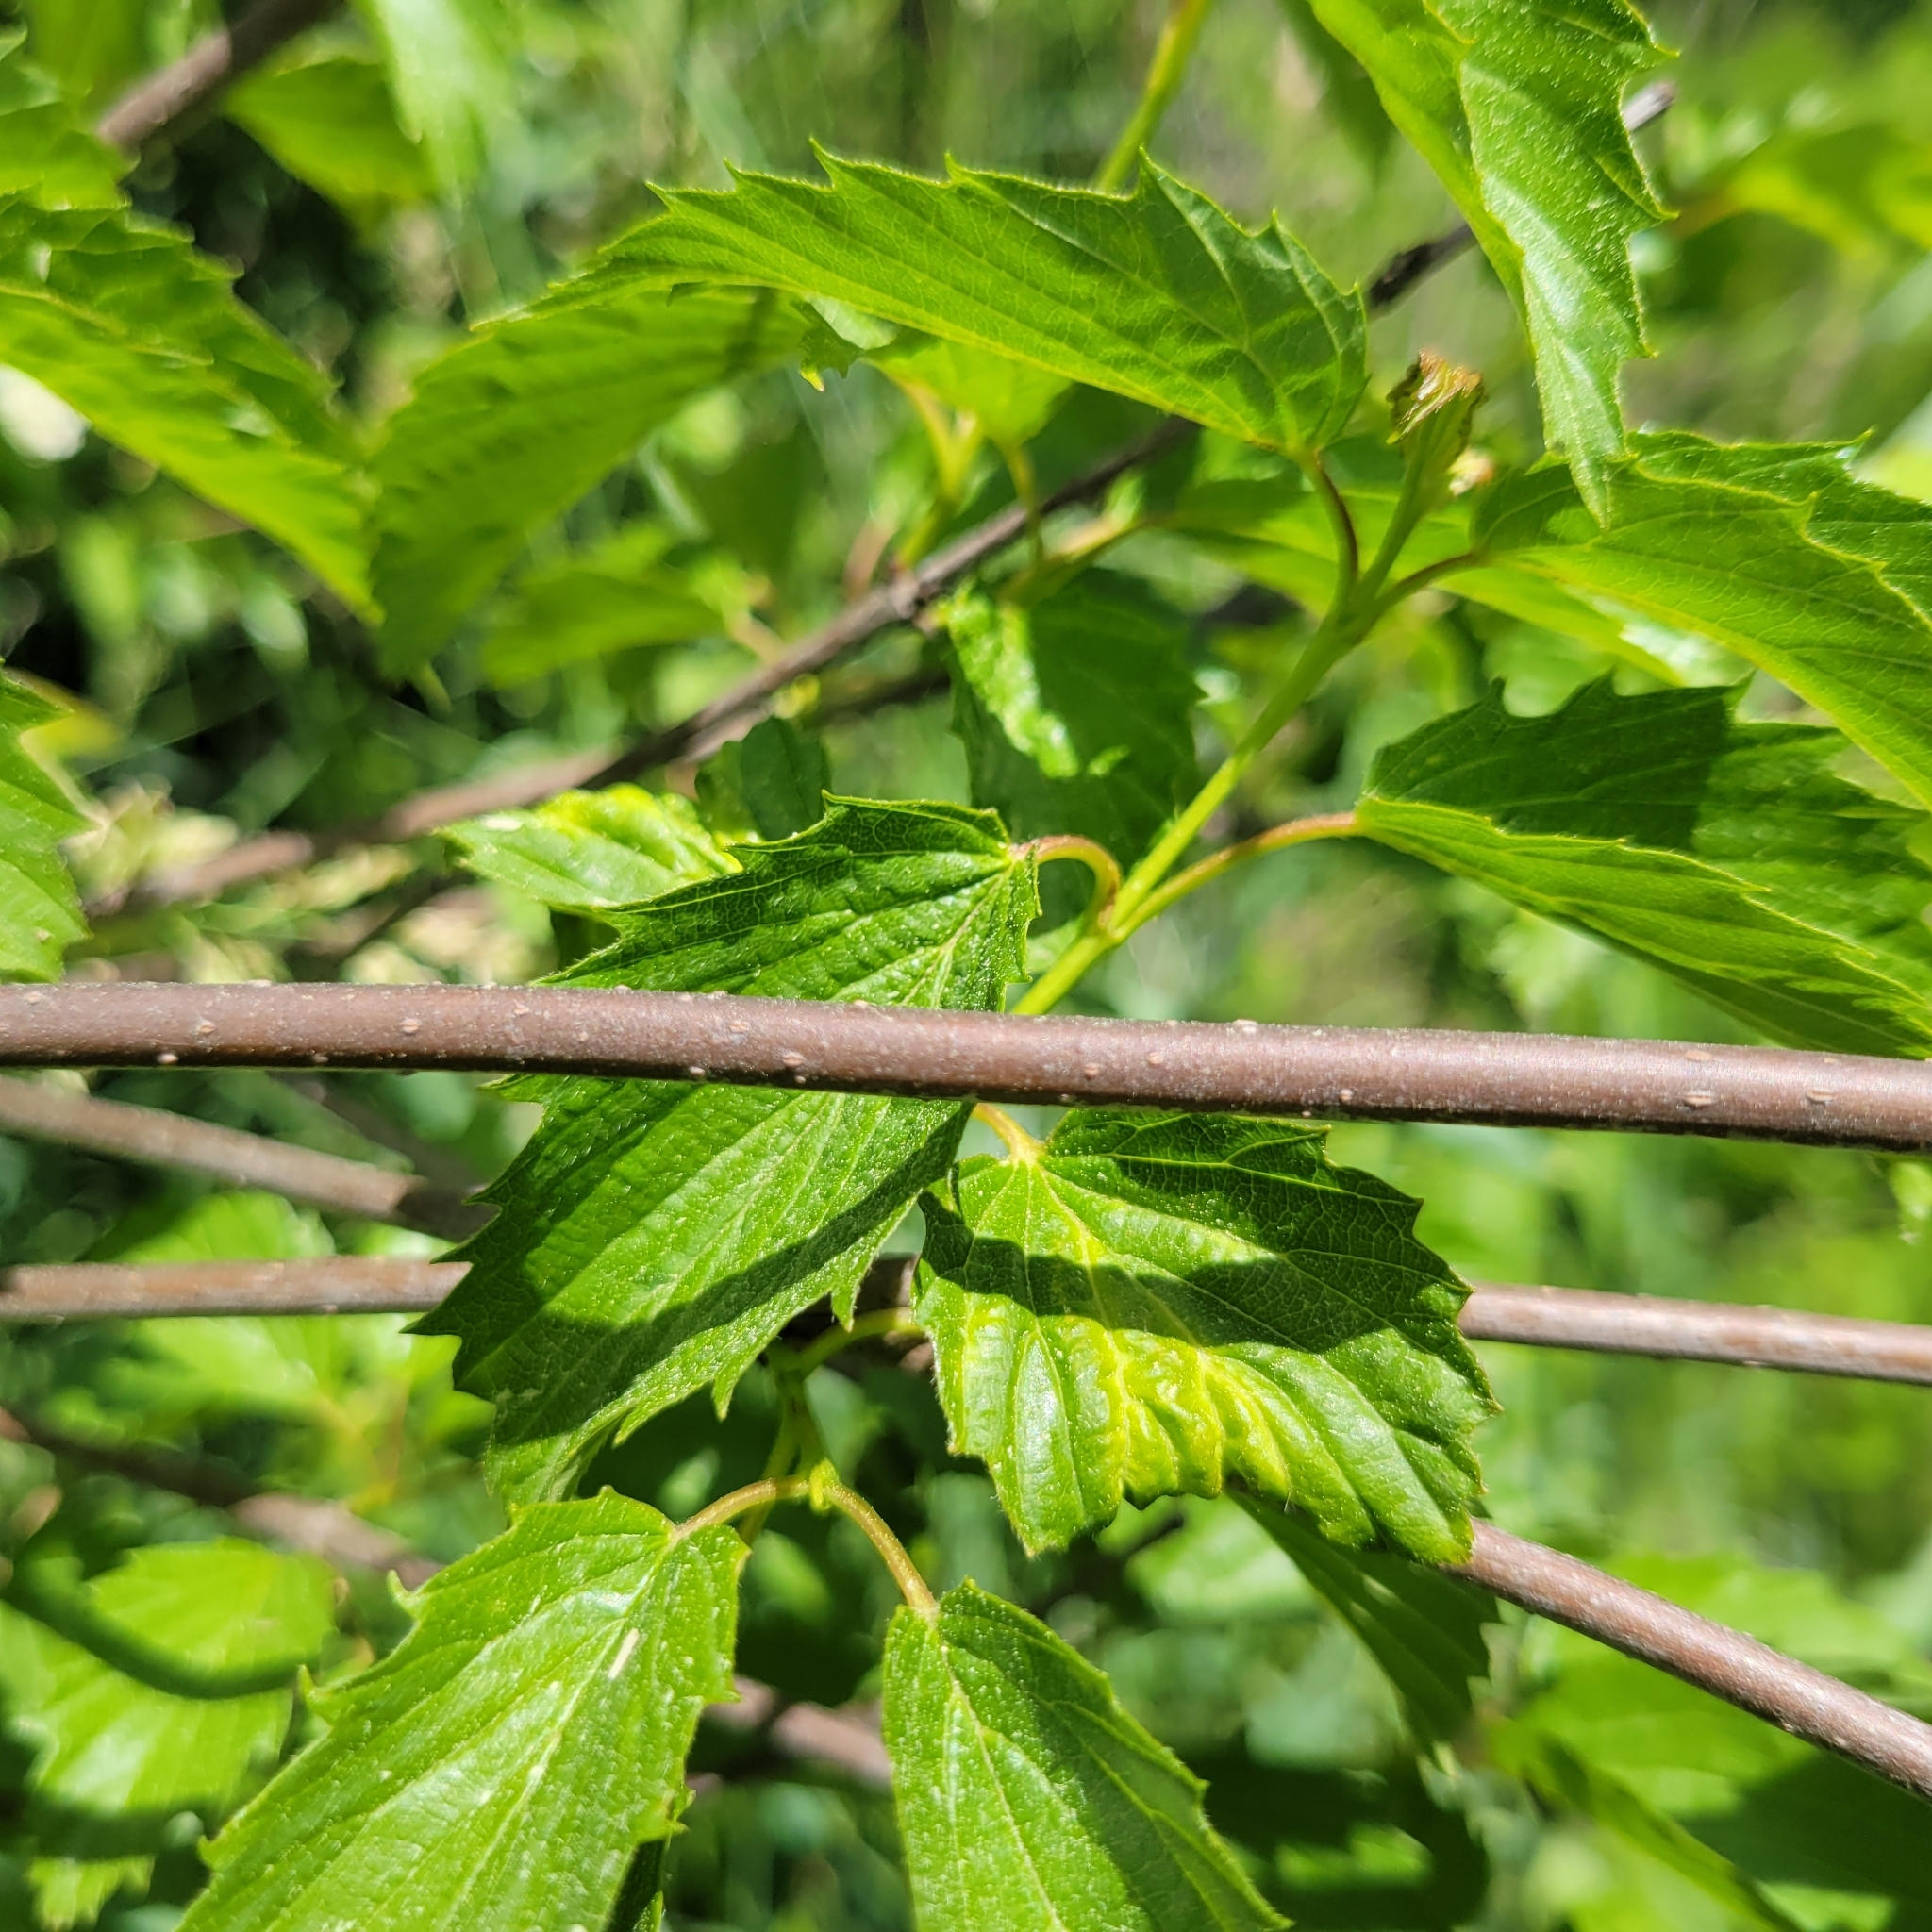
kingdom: Plantae
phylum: Tracheophyta
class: Magnoliopsida
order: Dipsacales
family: Viburnaceae
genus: Viburnum
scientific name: Viburnum dentatum
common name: Arrow-wood
